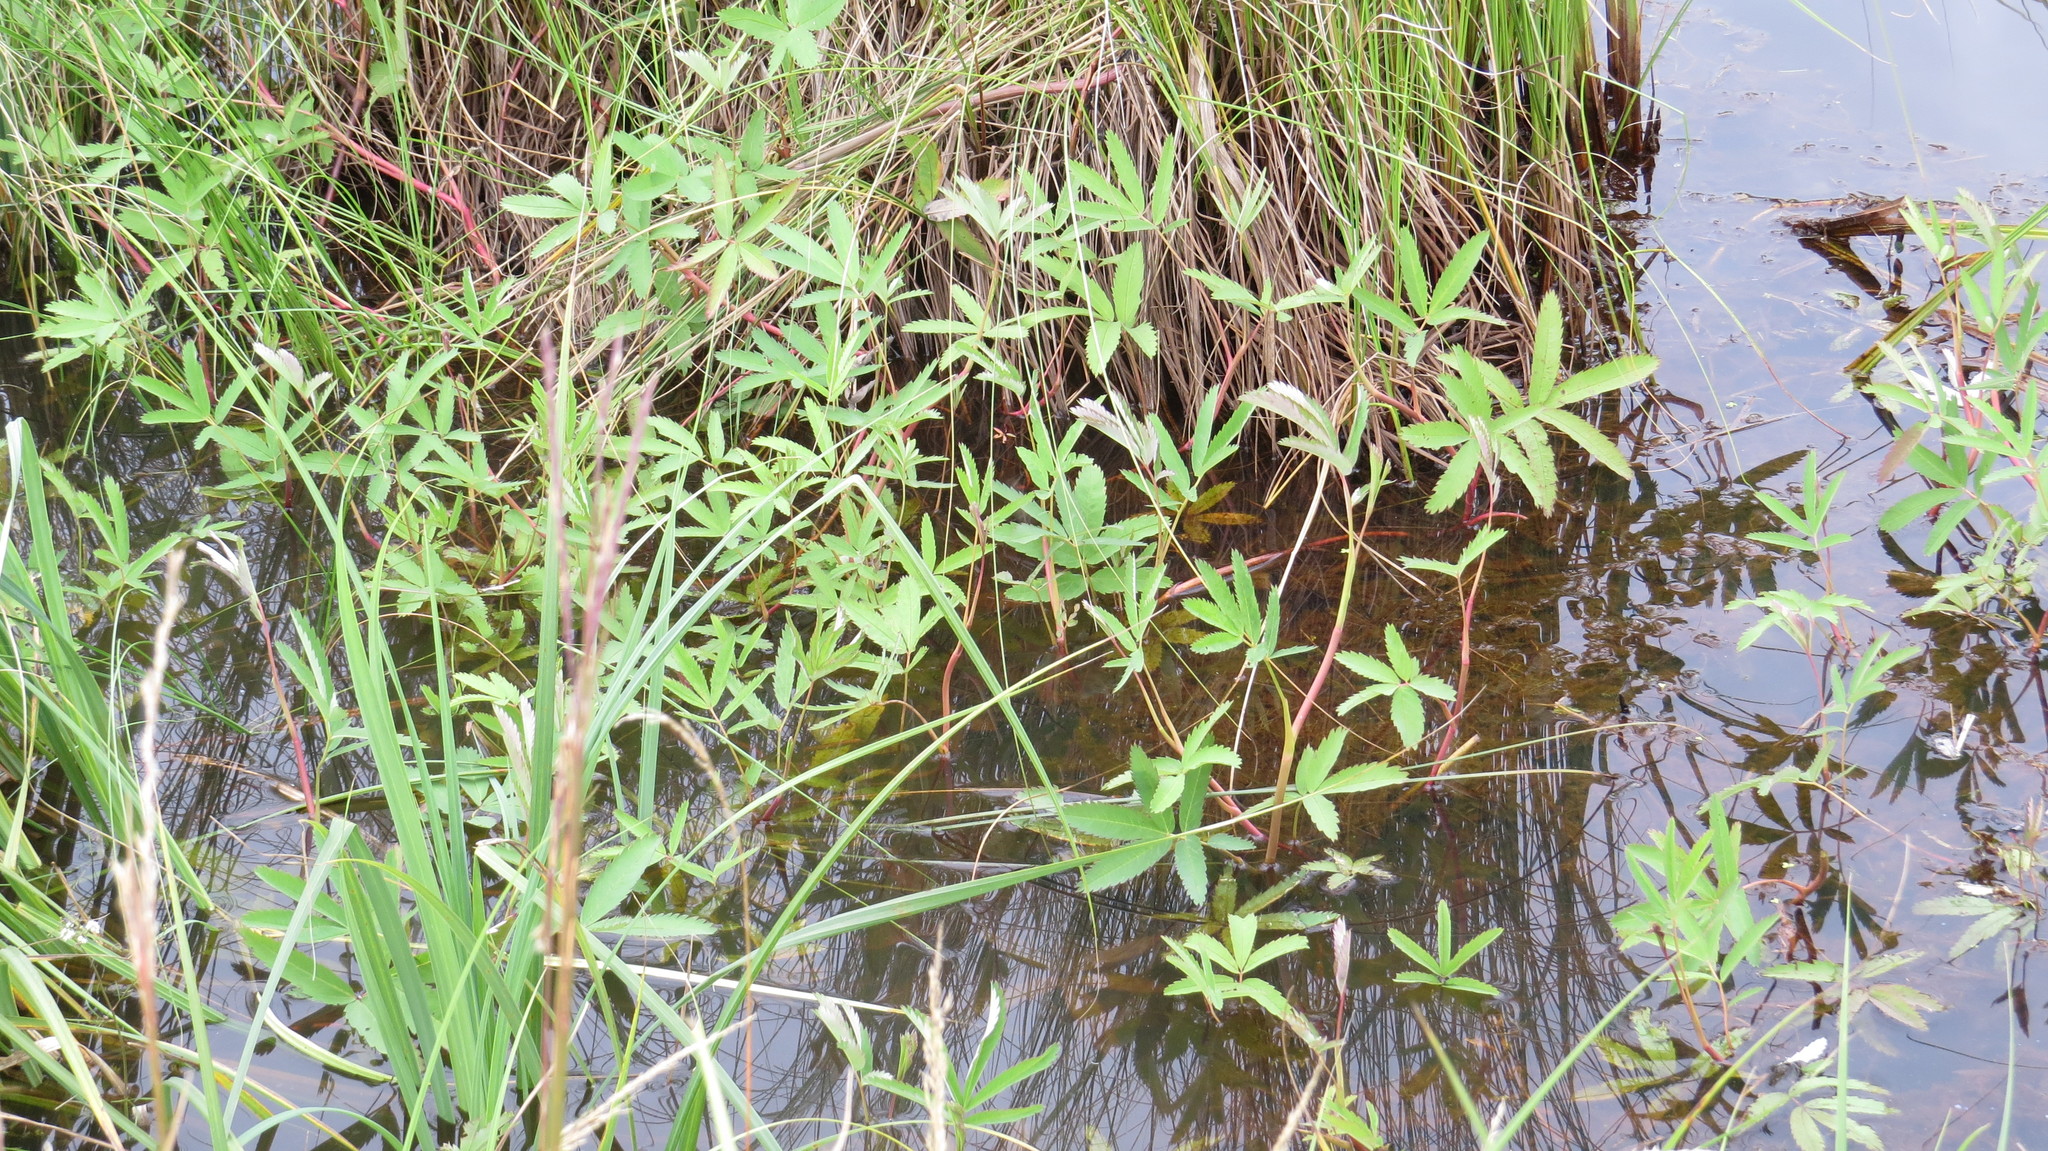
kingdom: Plantae
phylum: Tracheophyta
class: Magnoliopsida
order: Rosales
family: Rosaceae
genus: Comarum
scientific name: Comarum palustre
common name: Marsh cinquefoil
